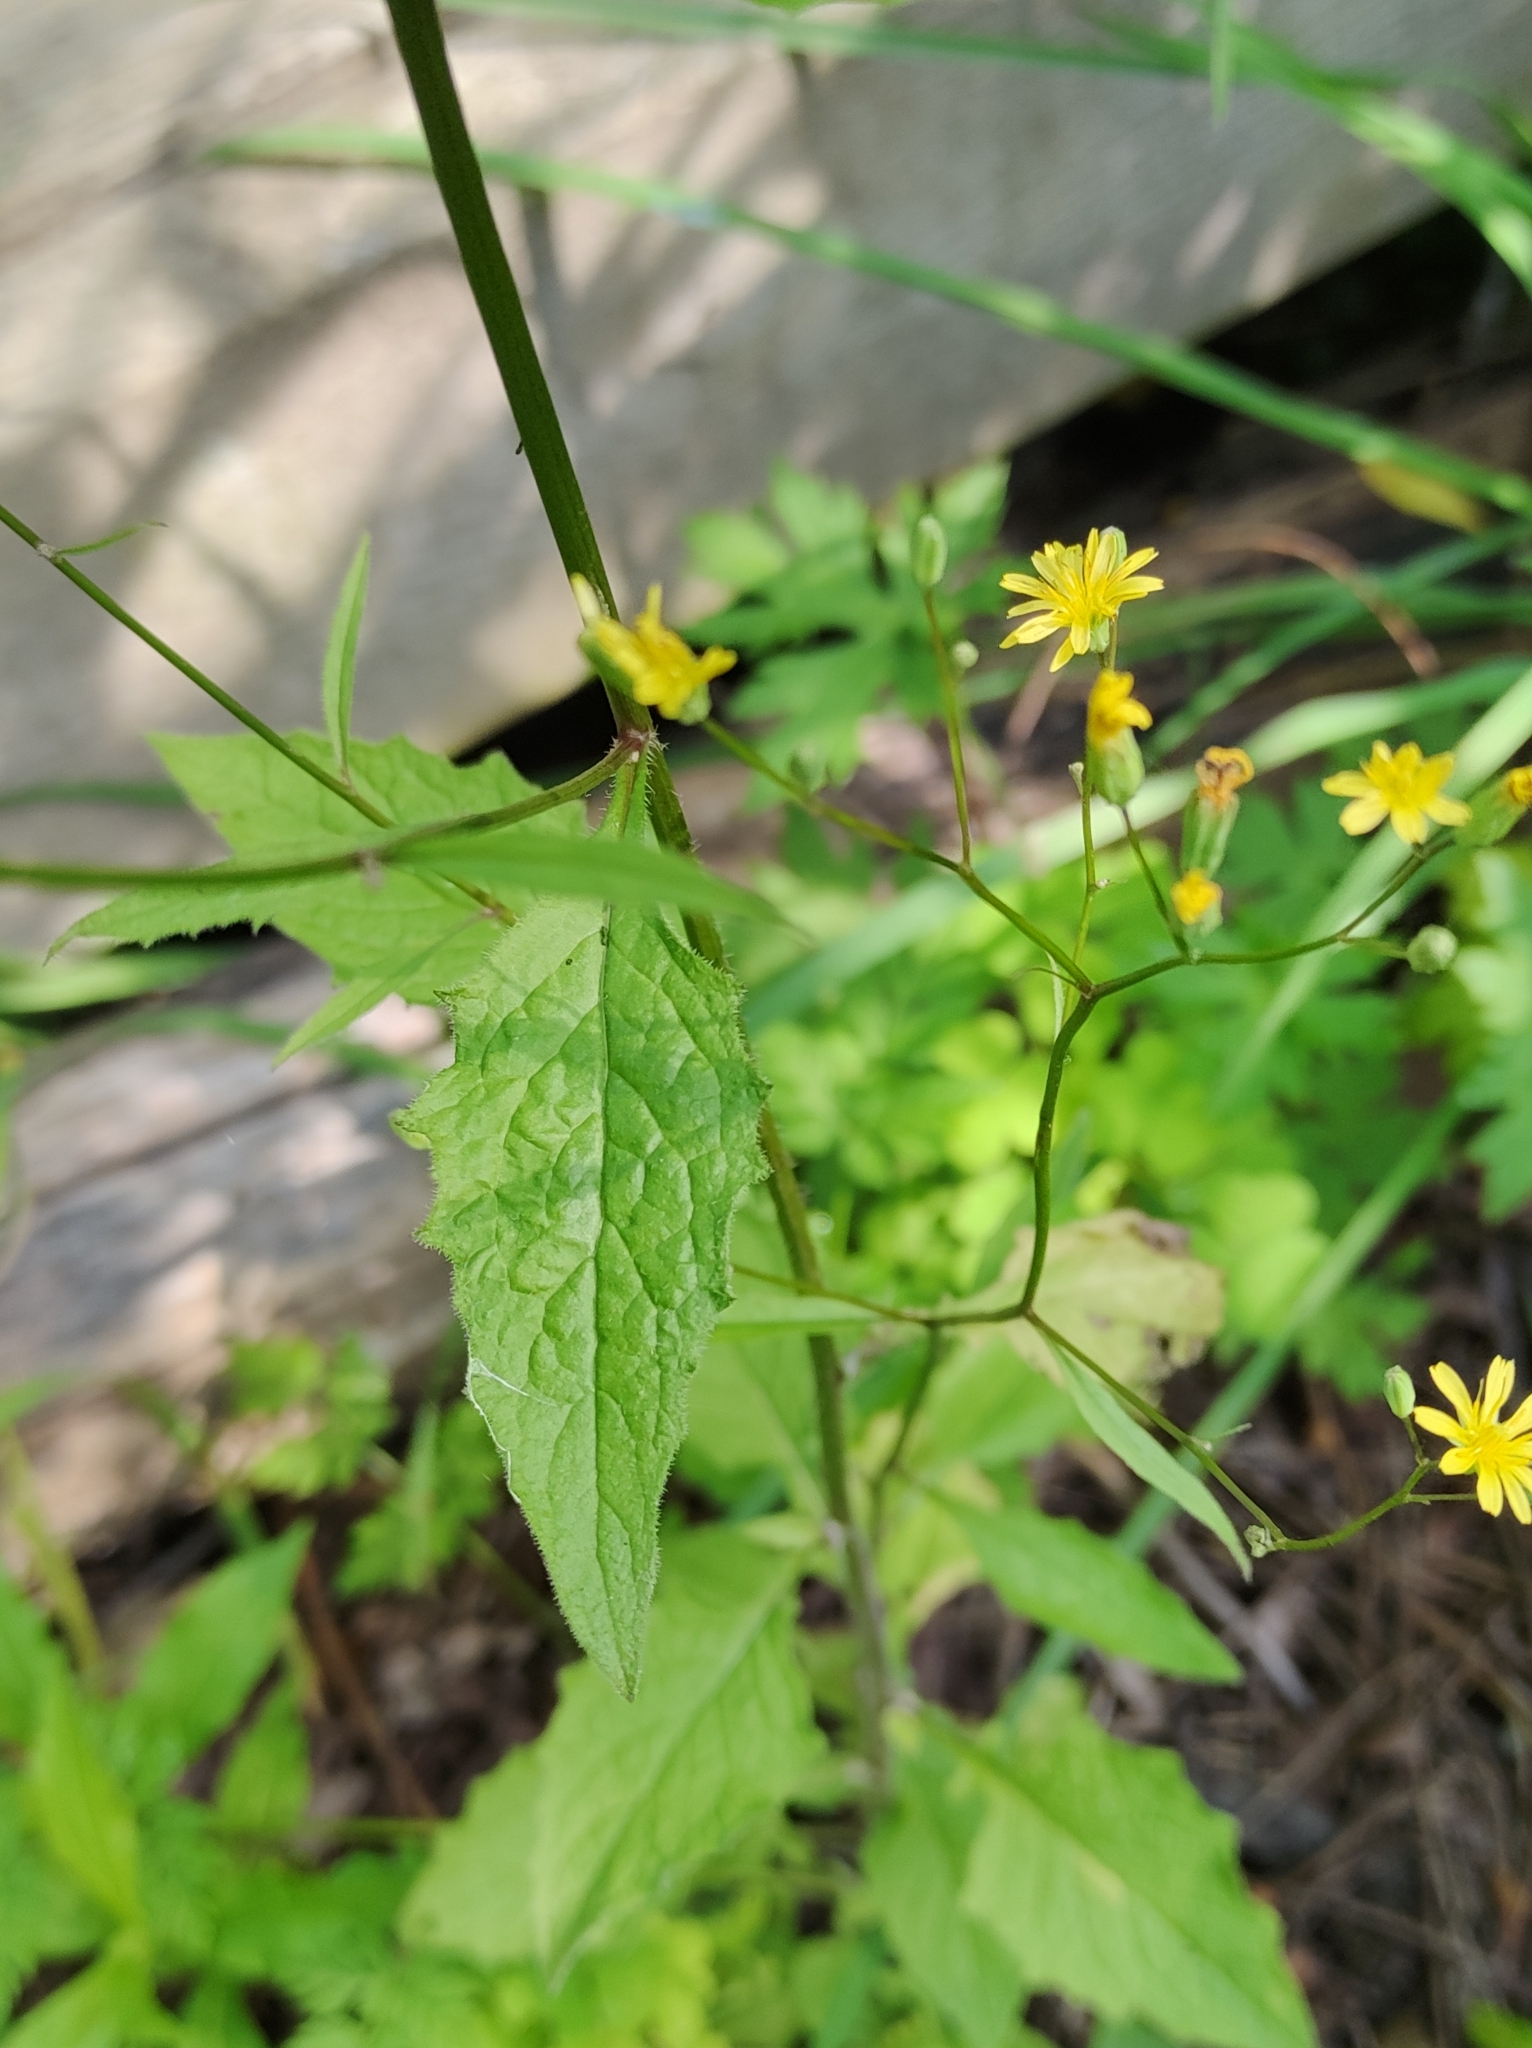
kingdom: Plantae
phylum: Tracheophyta
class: Magnoliopsida
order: Asterales
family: Asteraceae
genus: Lapsana
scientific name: Lapsana communis
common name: Nipplewort
